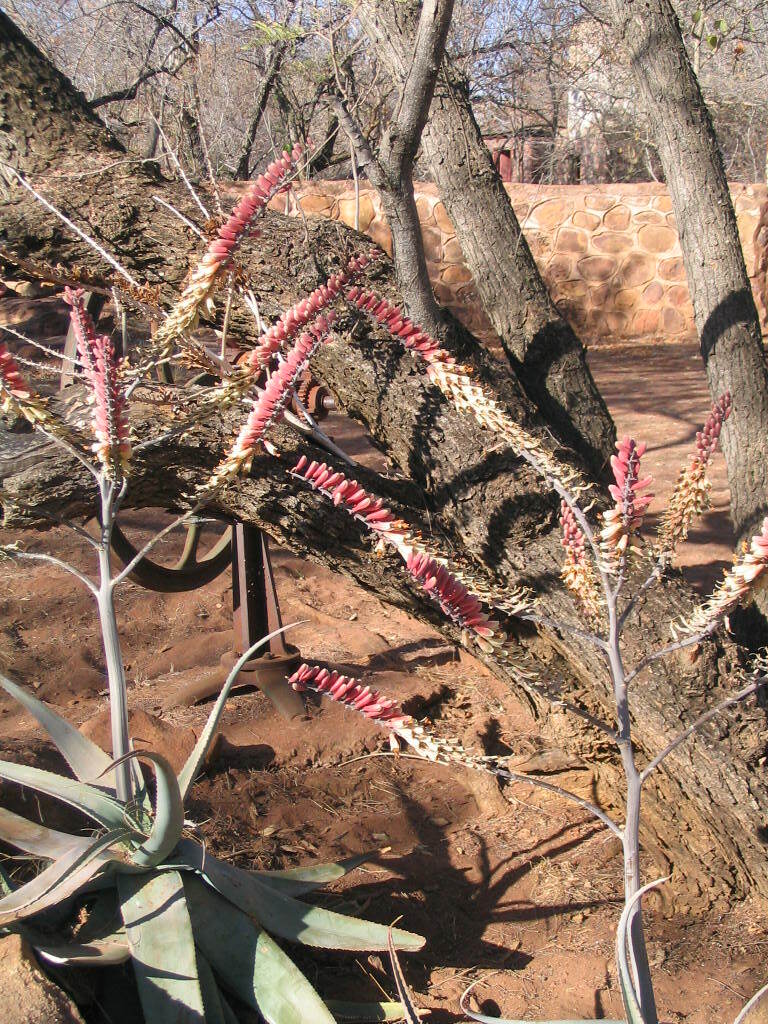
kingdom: Plantae
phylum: Tracheophyta
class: Liliopsida
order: Asparagales
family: Asphodelaceae
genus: Aloe
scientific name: Aloe globuligemma
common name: Witchdoctor's aloe
